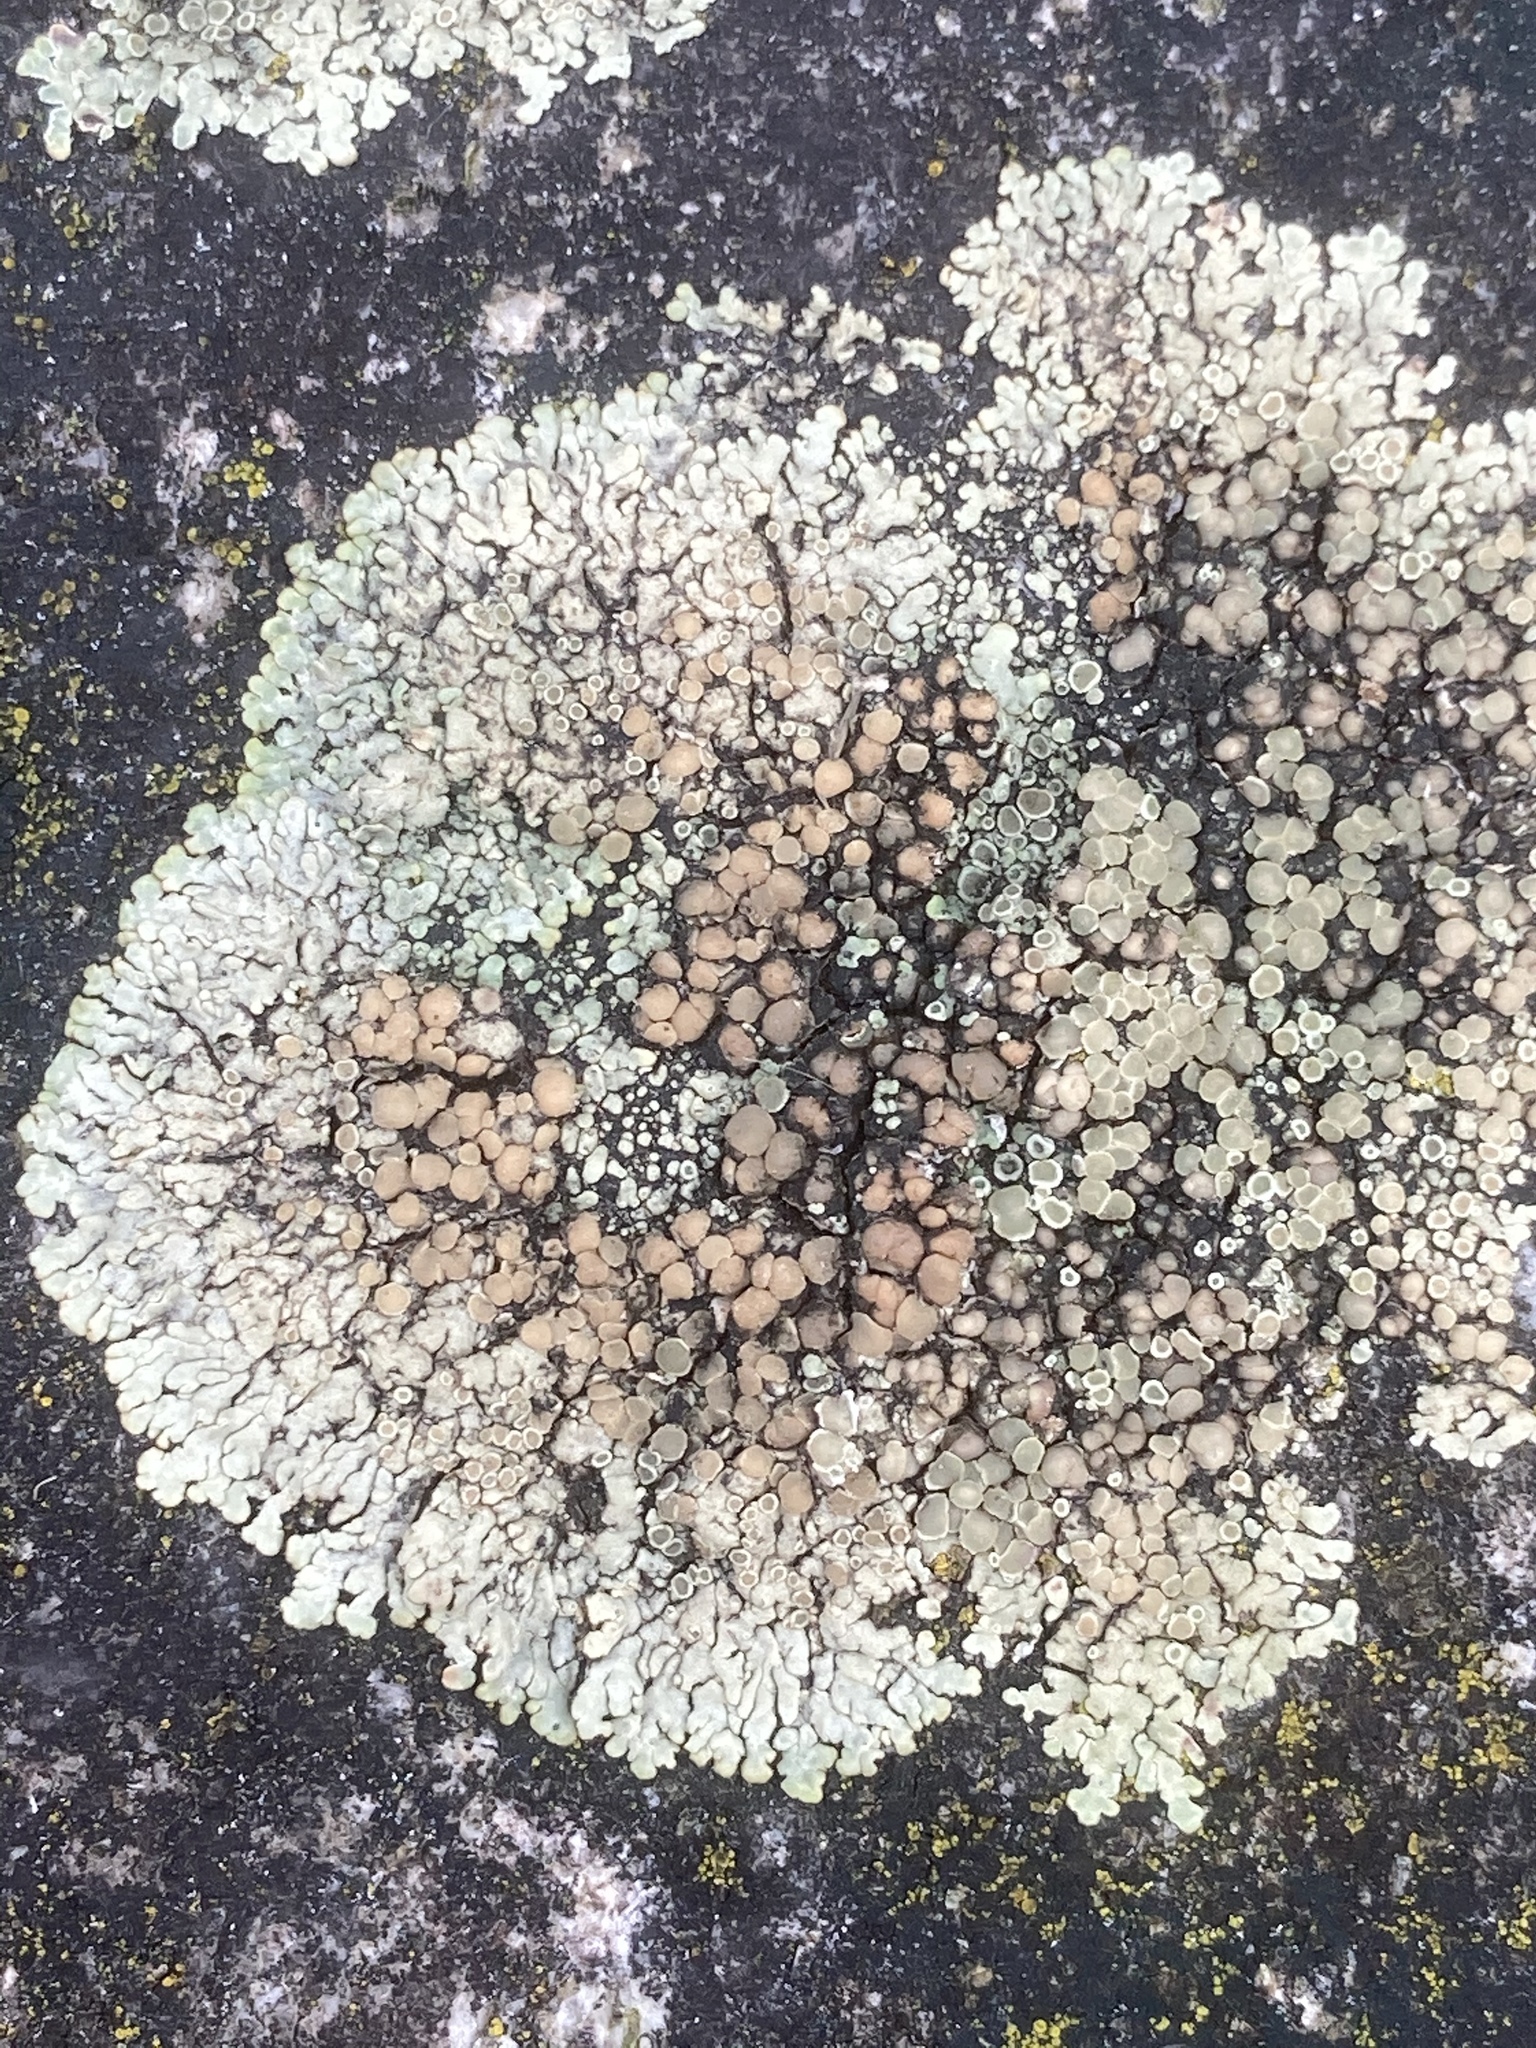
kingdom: Fungi
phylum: Ascomycota
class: Lecanoromycetes
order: Lecanorales
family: Lecanoraceae
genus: Protoparmeliopsis
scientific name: Protoparmeliopsis muralis
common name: Stonewall rim lichen
